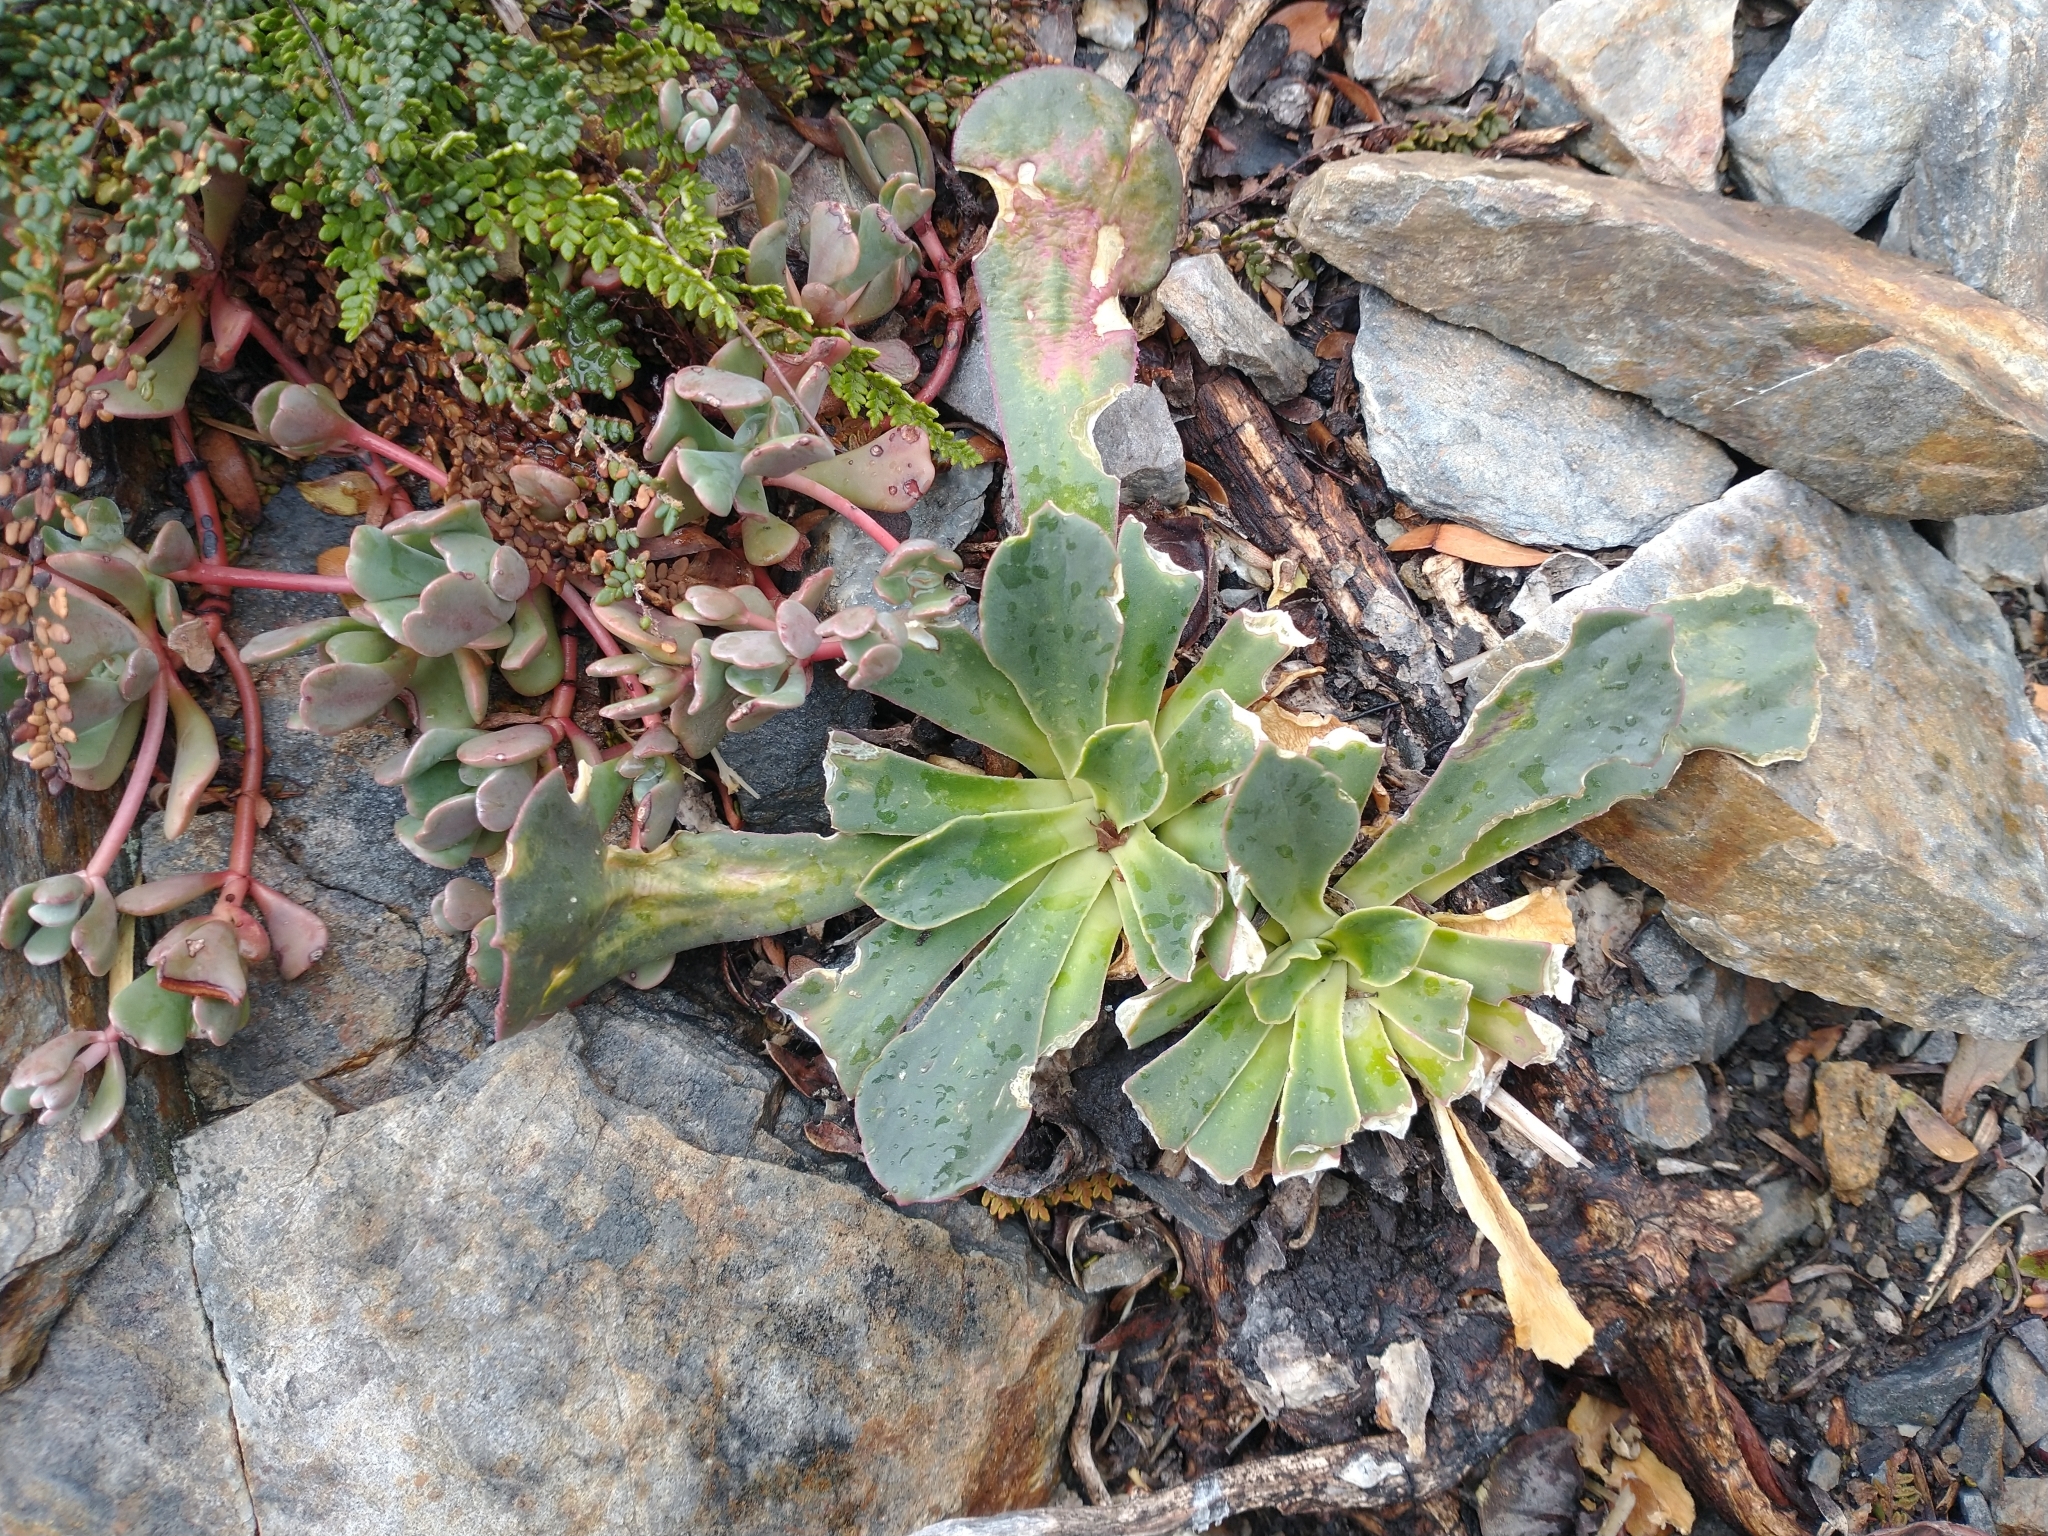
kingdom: Plantae
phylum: Tracheophyta
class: Magnoliopsida
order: Caryophyllales
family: Montiaceae
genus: Lewisia
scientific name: Lewisia cotyledon
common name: Siskiyou lewisia
